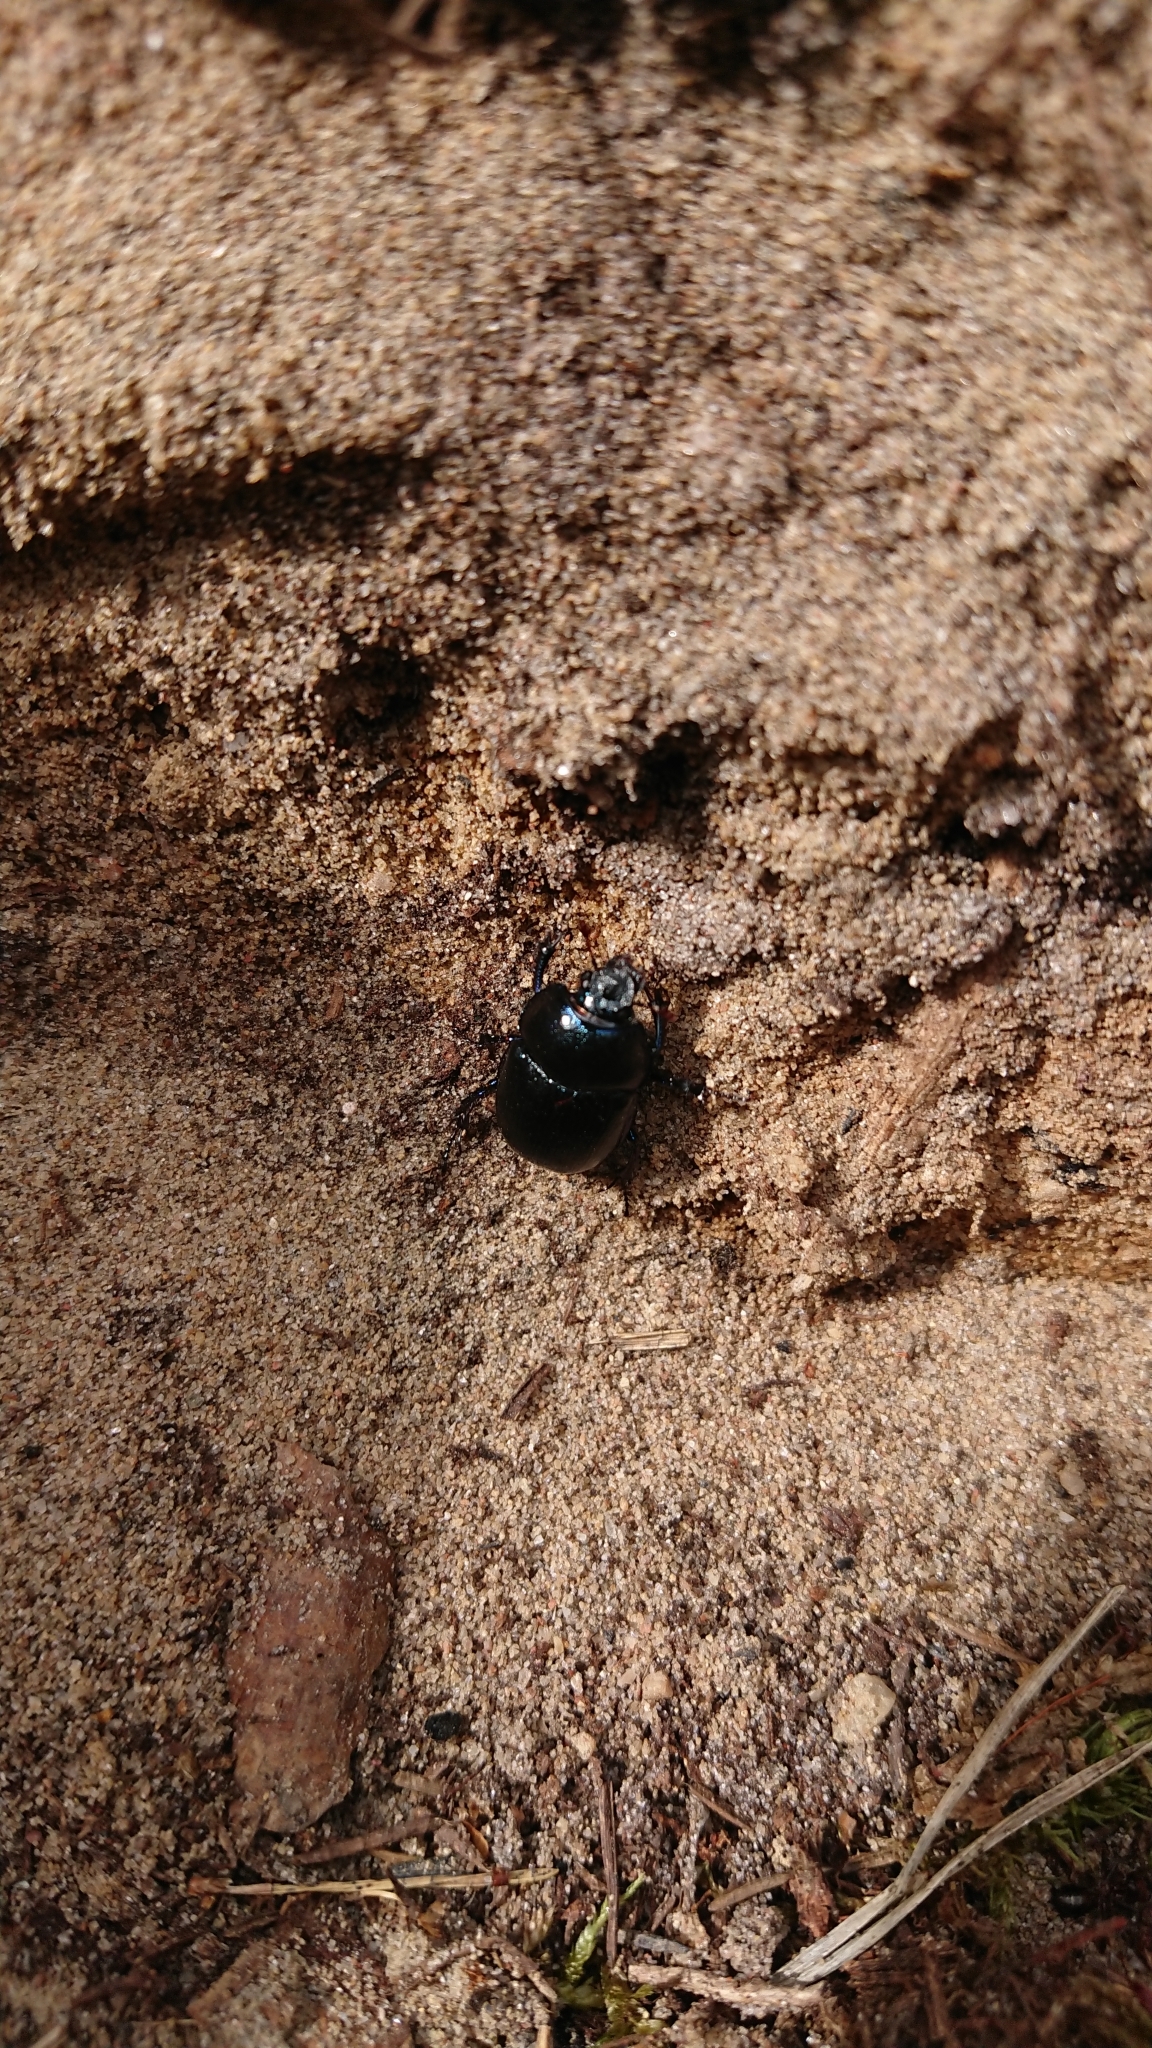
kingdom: Animalia
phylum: Arthropoda
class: Insecta
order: Coleoptera
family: Geotrupidae
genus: Anoplotrupes
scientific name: Anoplotrupes stercorosus
